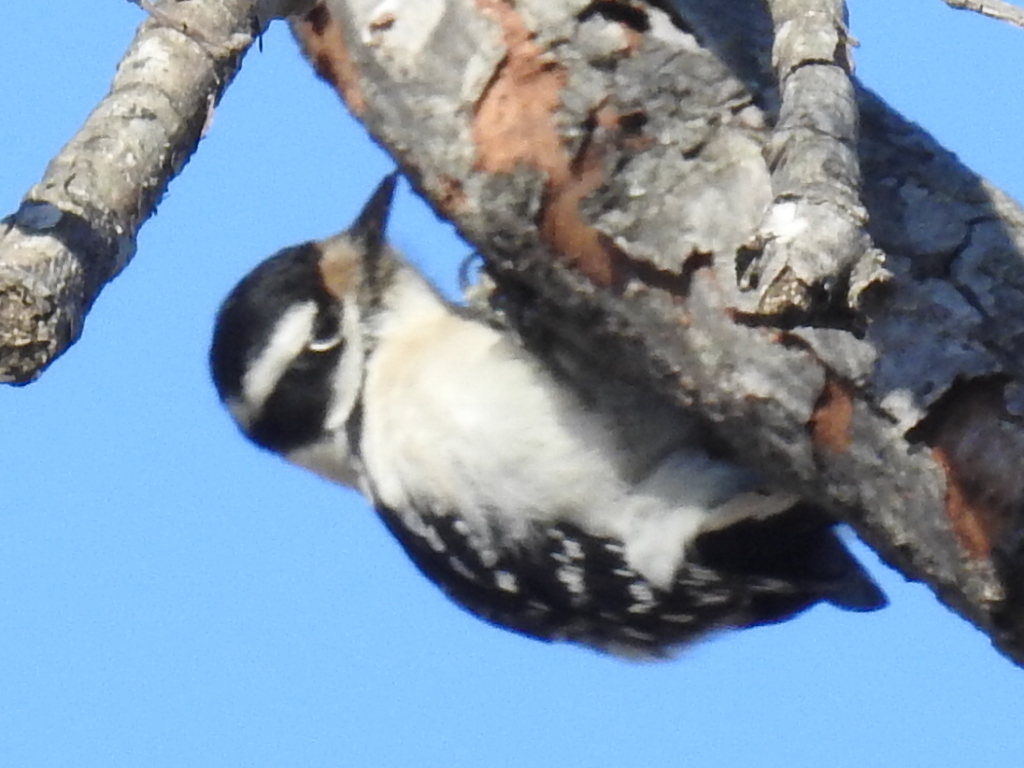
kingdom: Animalia
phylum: Chordata
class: Aves
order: Piciformes
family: Picidae
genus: Dryobates
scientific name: Dryobates pubescens
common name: Downy woodpecker
